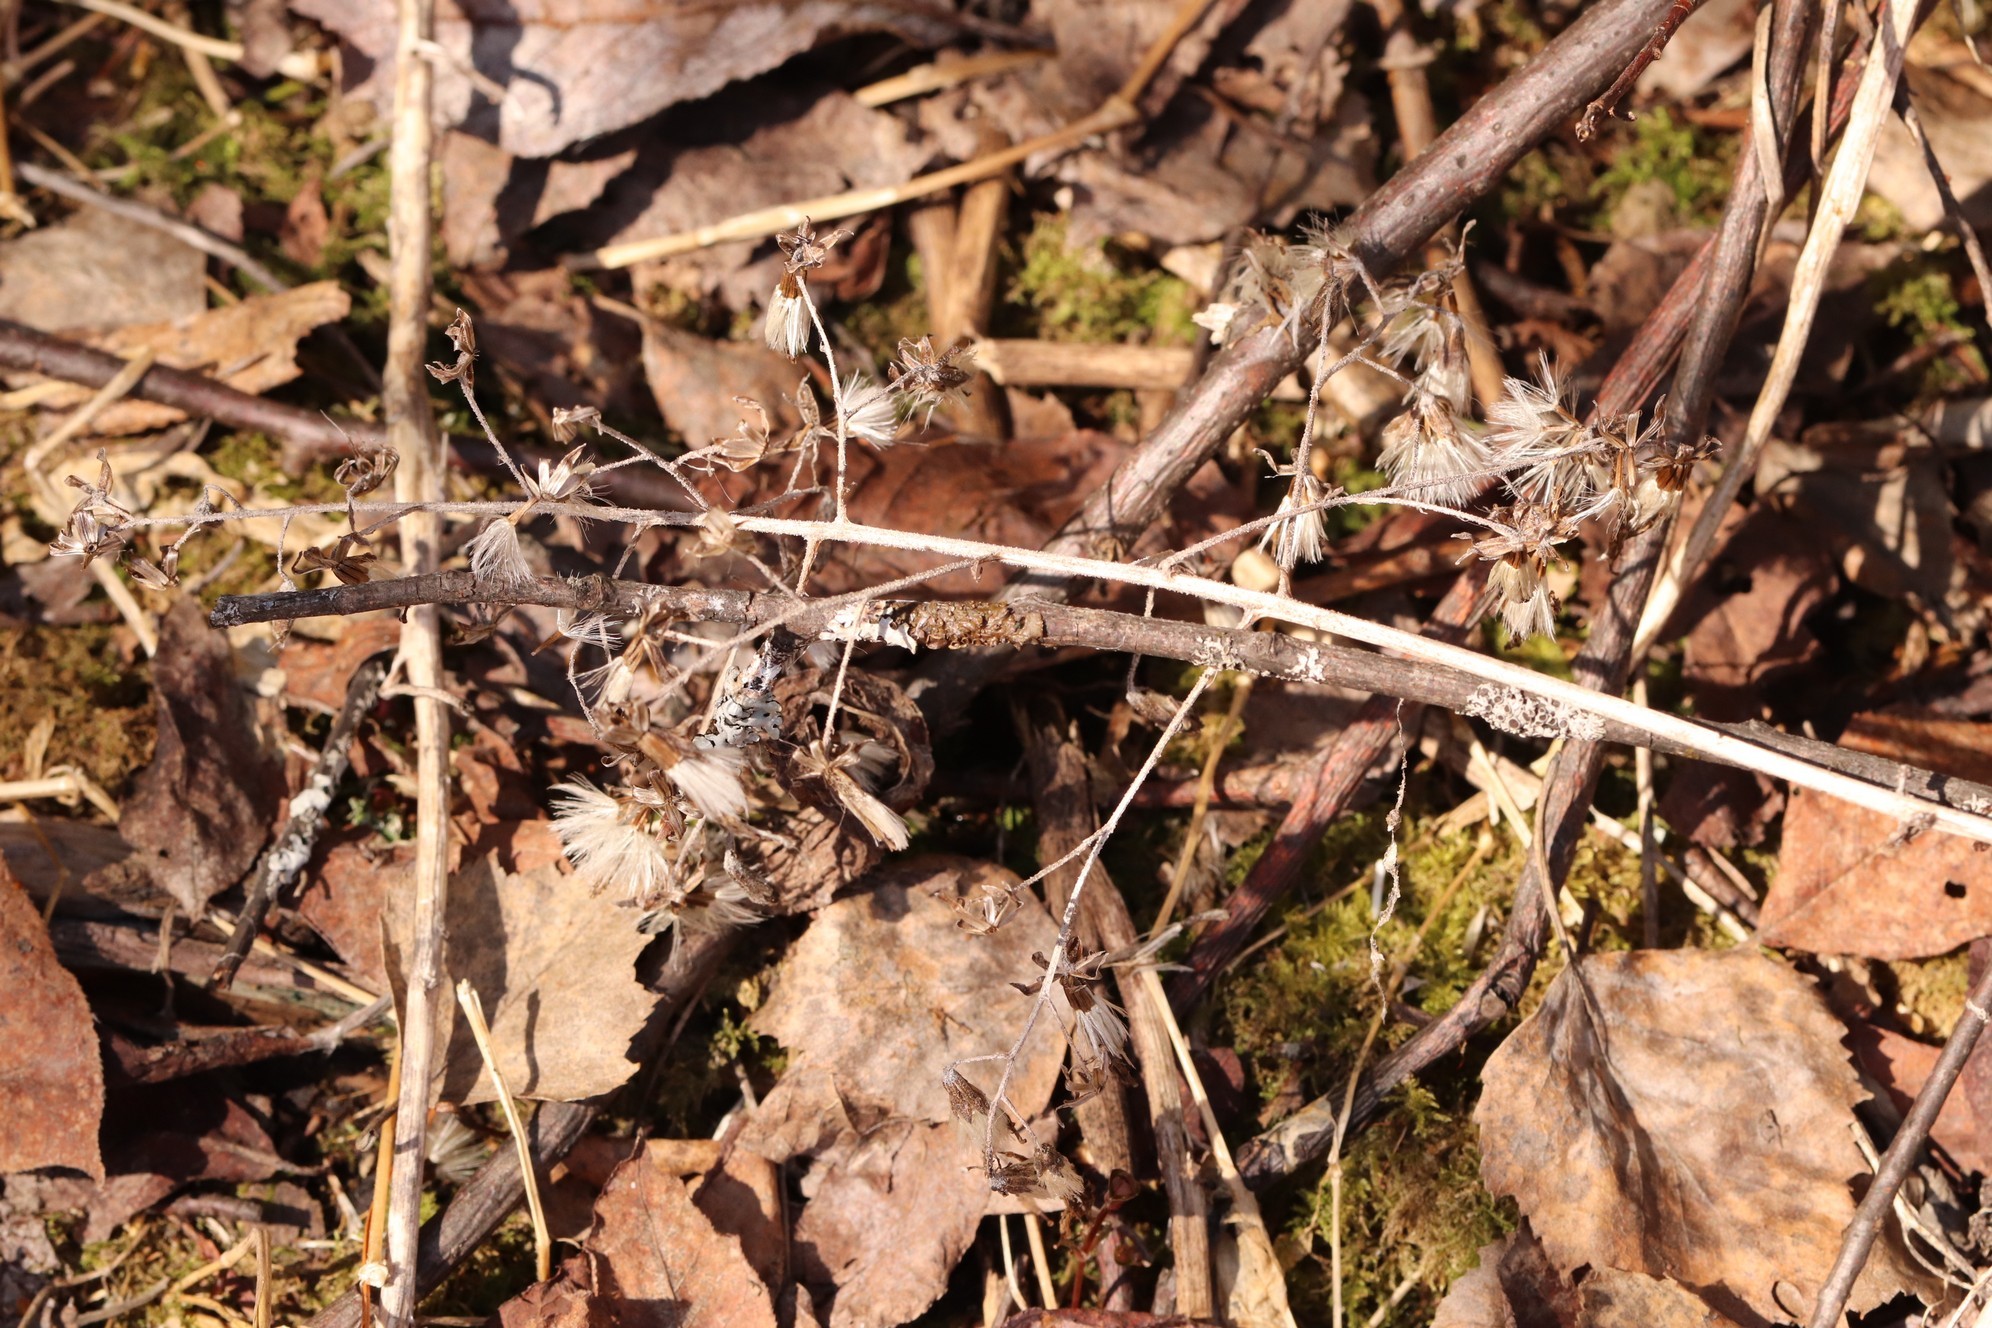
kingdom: Plantae
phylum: Tracheophyta
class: Magnoliopsida
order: Asterales
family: Asteraceae
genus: Parasenecio
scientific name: Parasenecio hastatus
